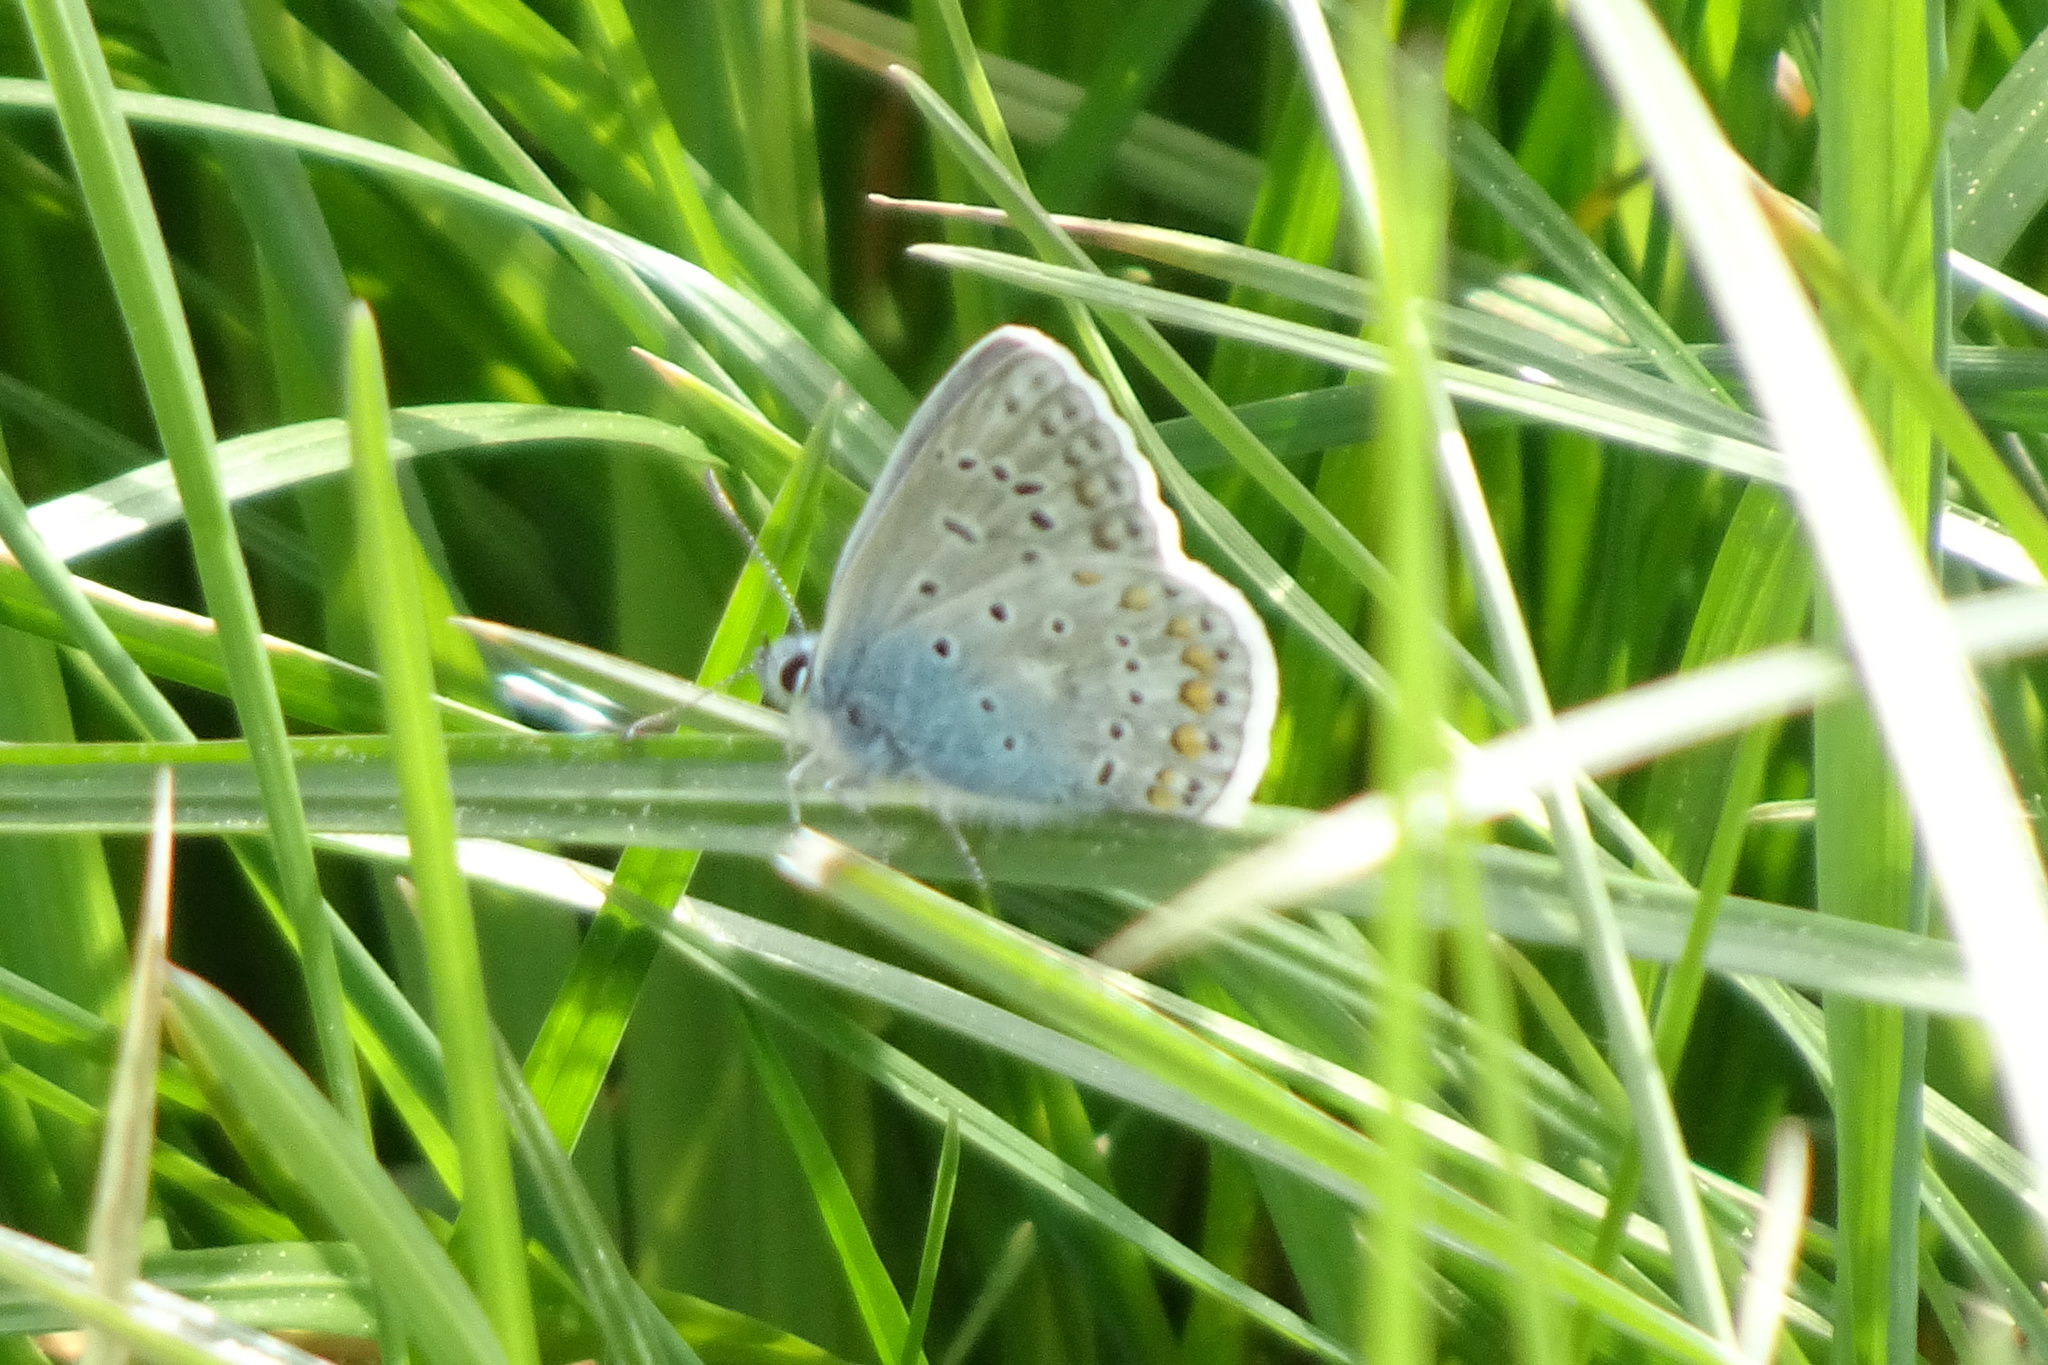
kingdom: Animalia
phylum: Arthropoda
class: Insecta
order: Lepidoptera
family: Lycaenidae
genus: Polyommatus
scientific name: Polyommatus icarus
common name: Common blue
